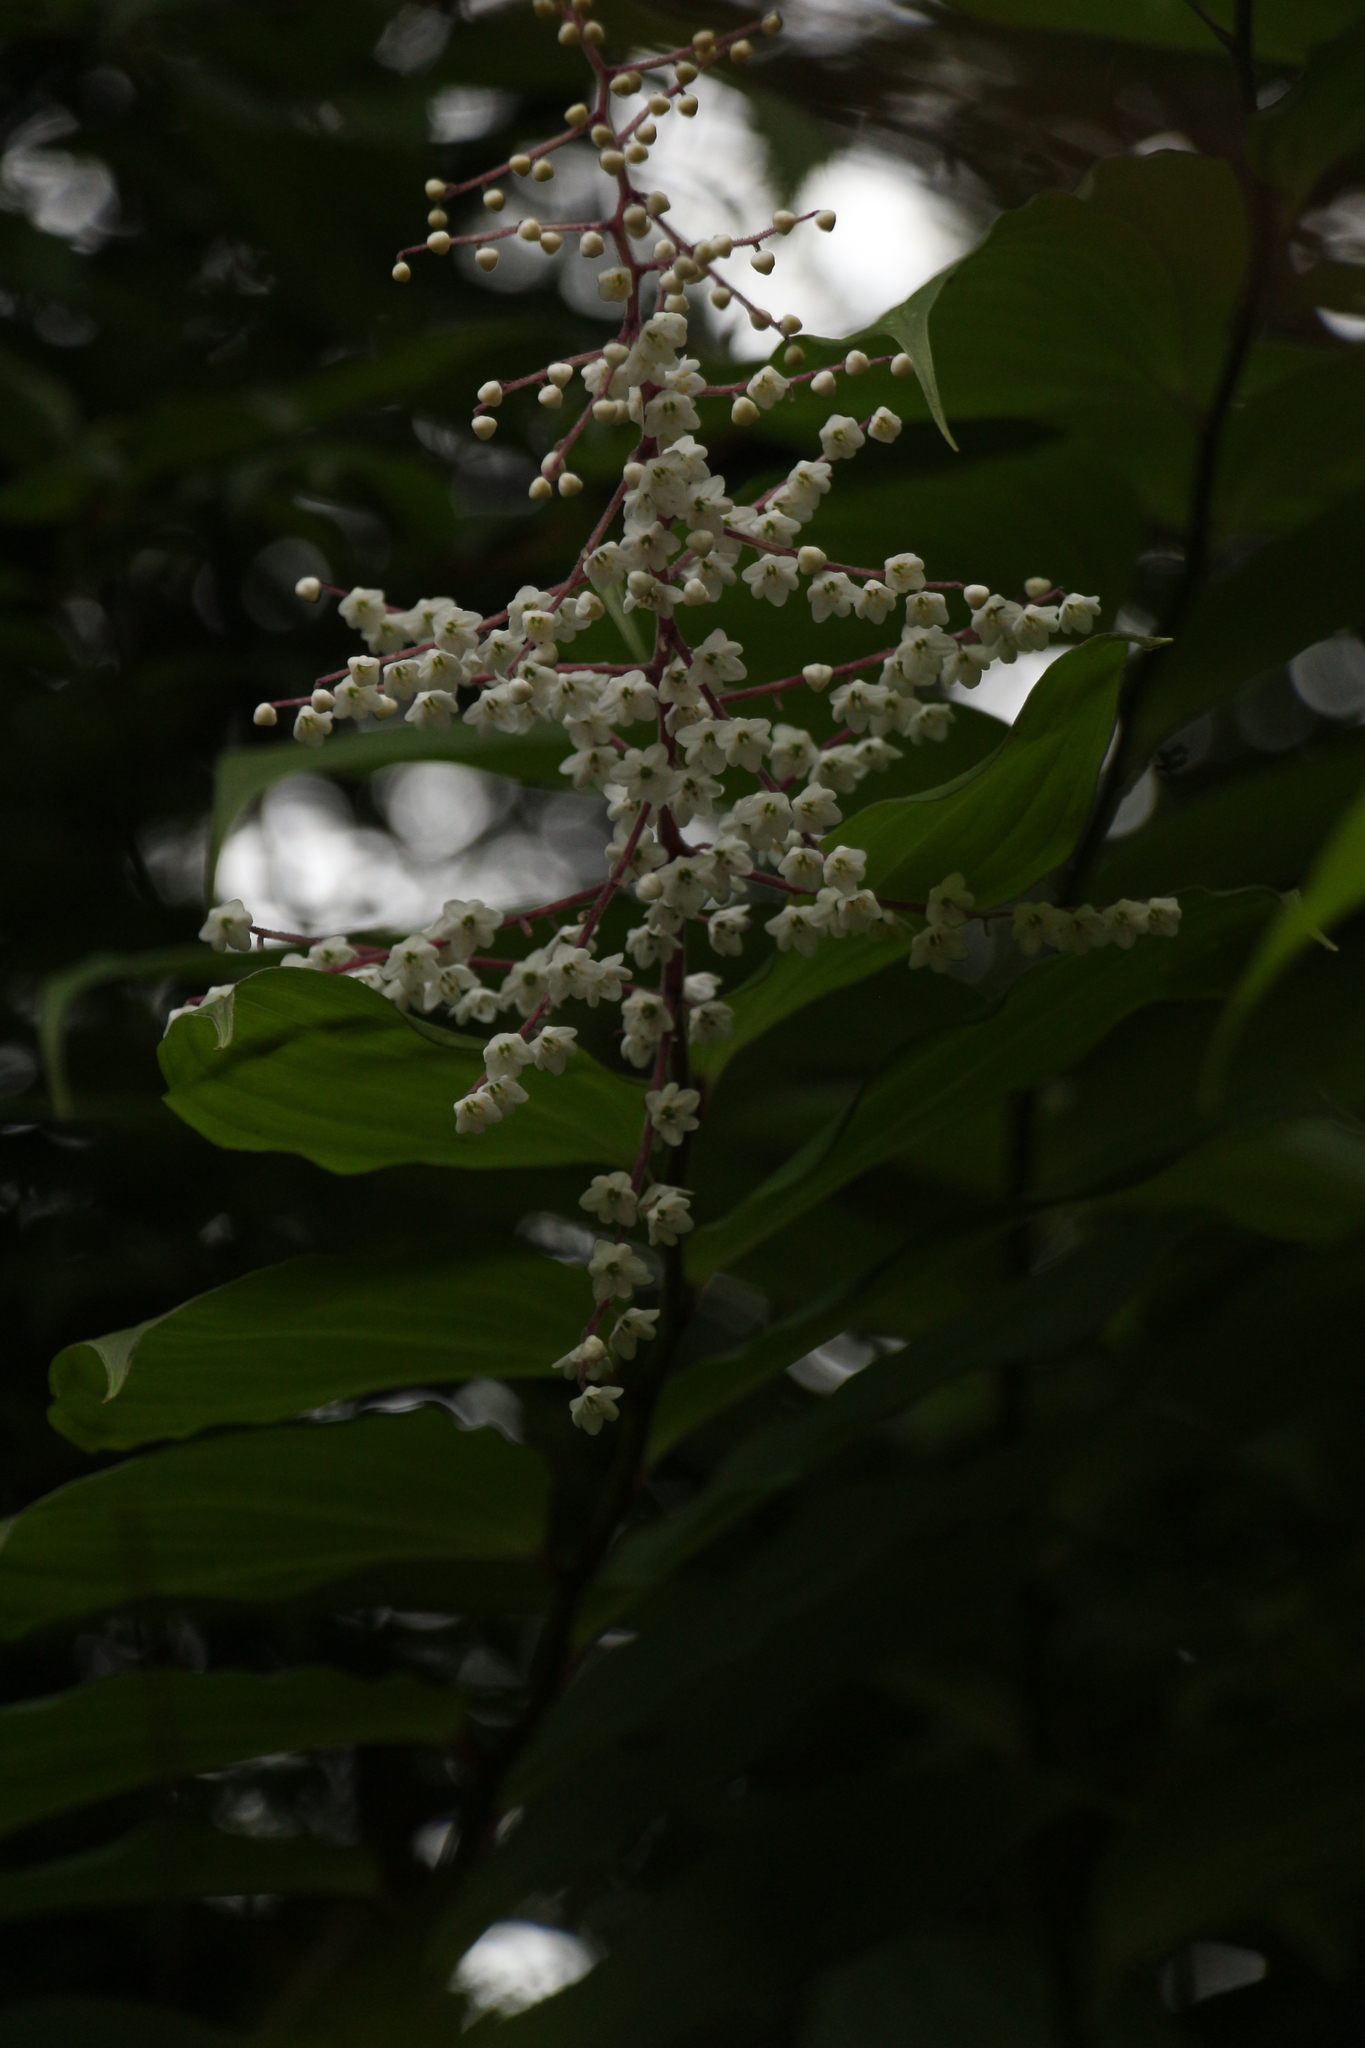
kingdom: Plantae
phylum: Tracheophyta
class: Liliopsida
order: Asparagales
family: Asparagaceae
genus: Maianthemum
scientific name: Maianthemum oleraceum
